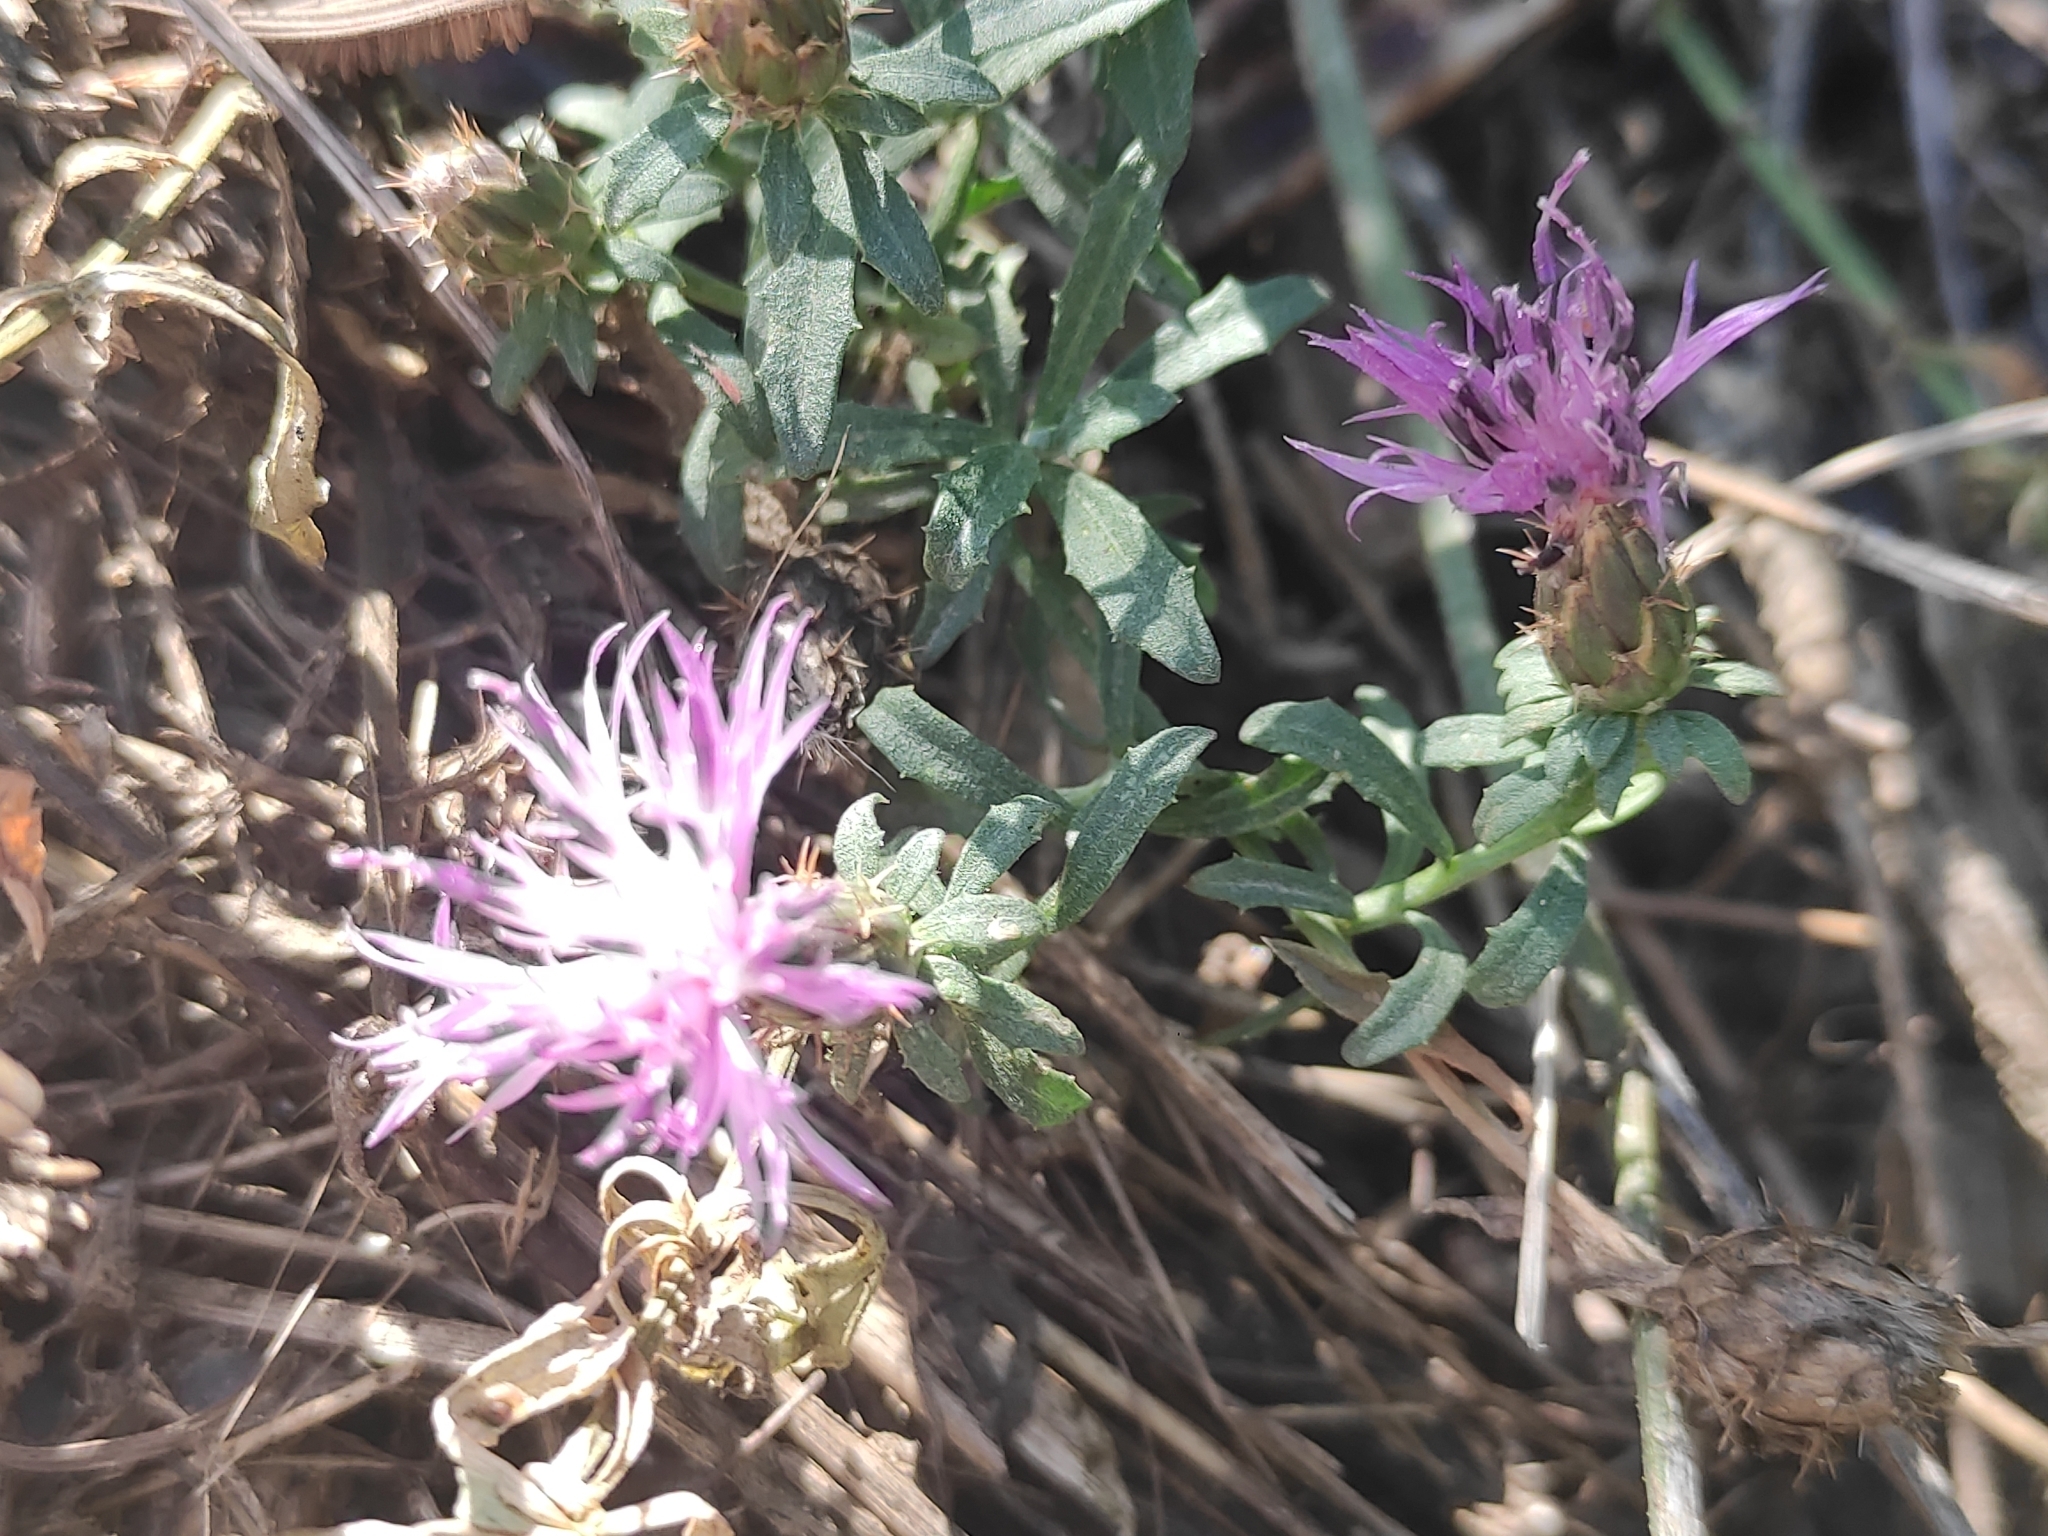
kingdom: Plantae
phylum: Tracheophyta
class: Magnoliopsida
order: Asterales
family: Asteraceae
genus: Centaurea
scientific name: Centaurea aspera
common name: Rough star-thistle
